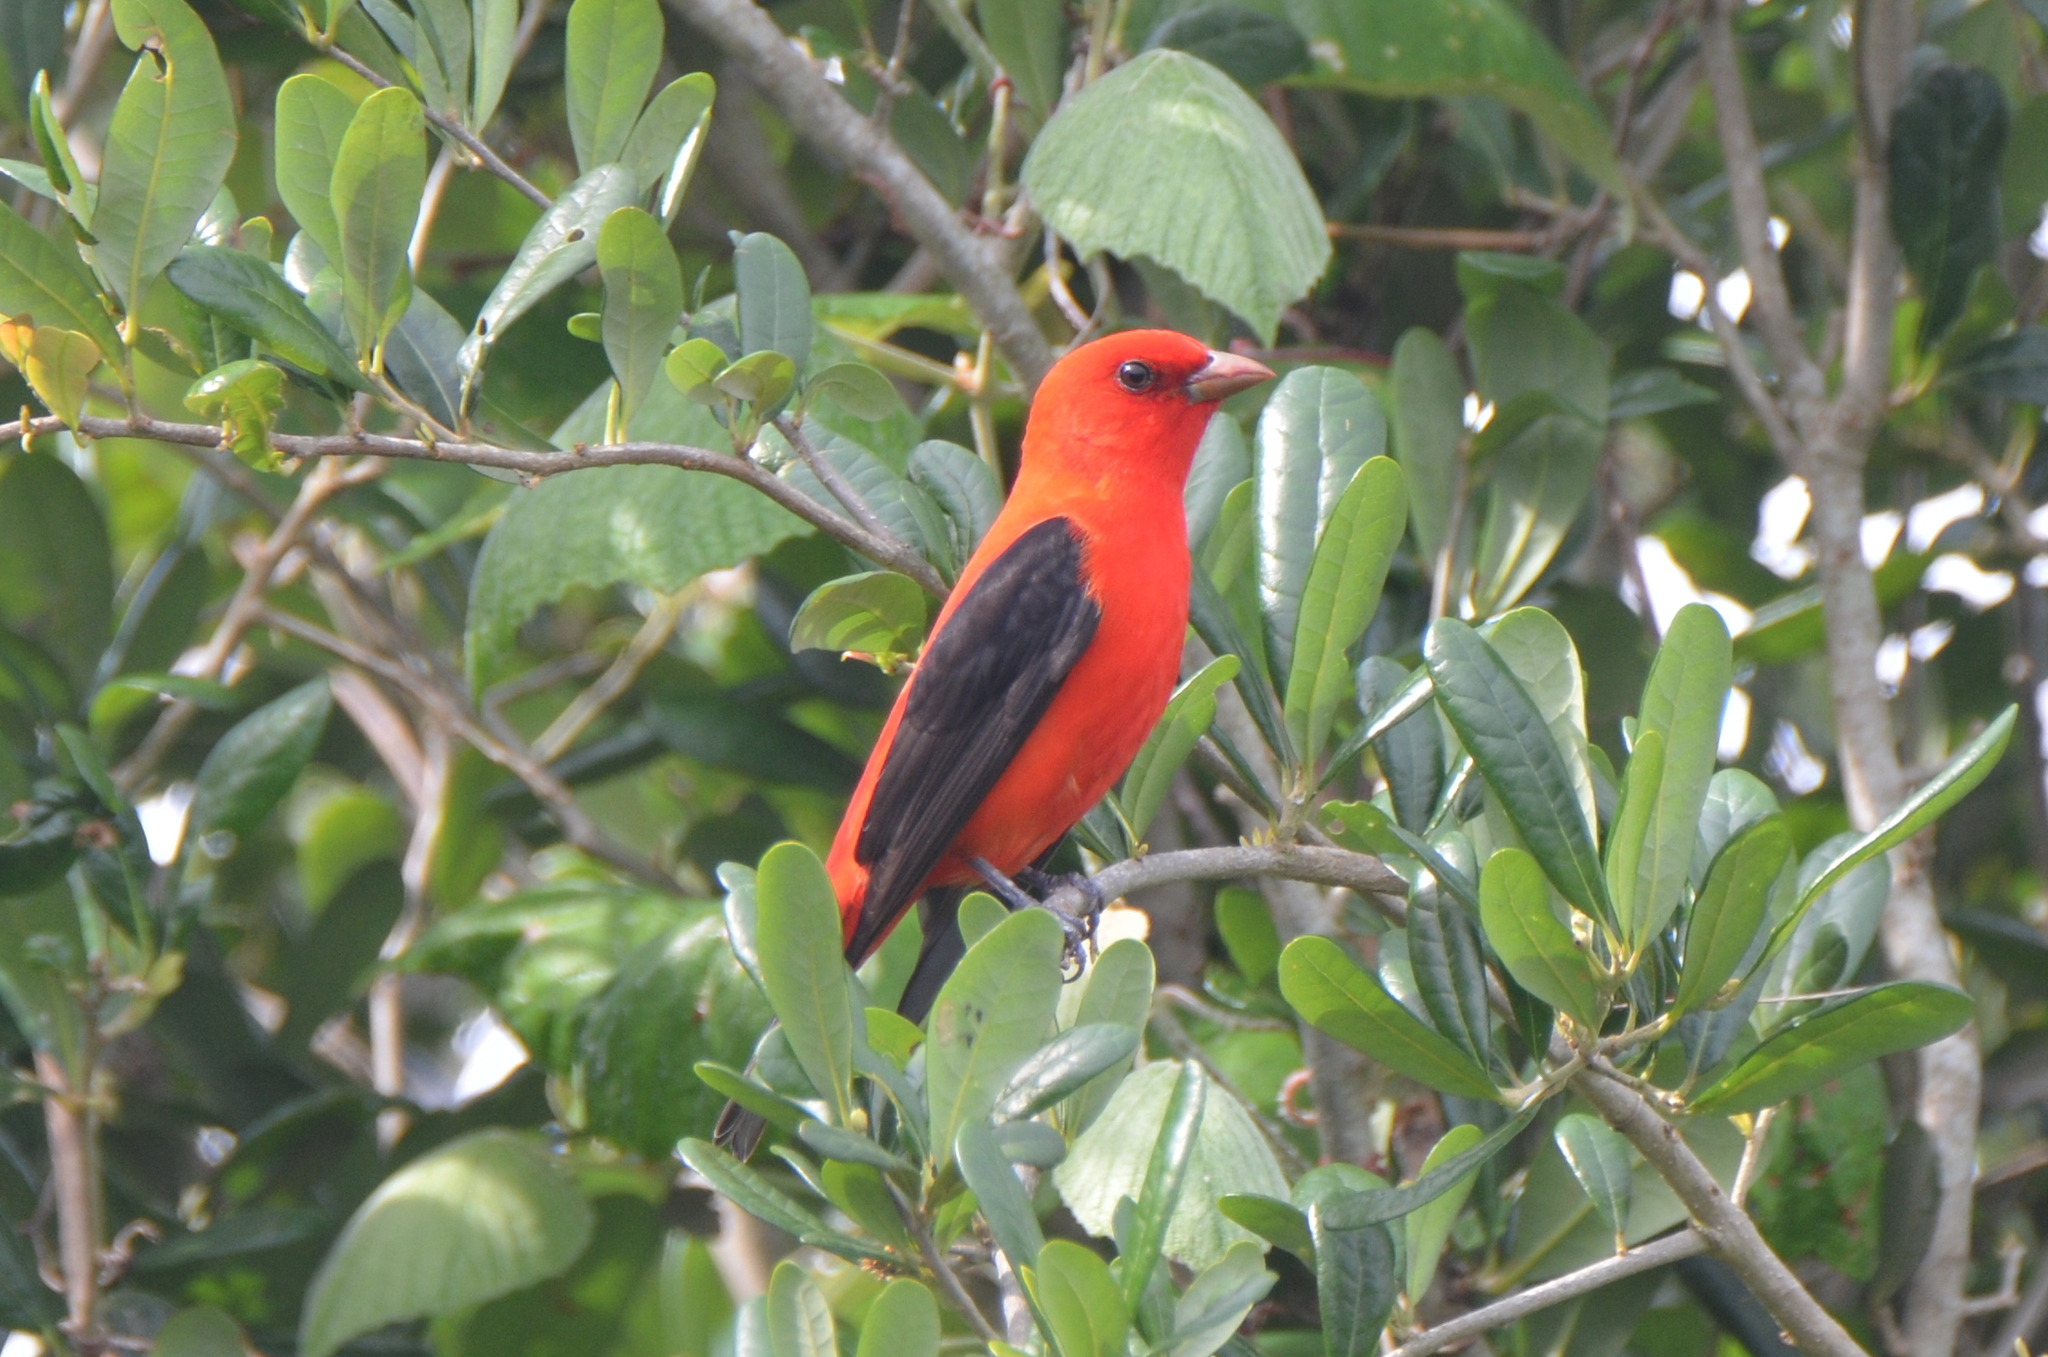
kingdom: Animalia
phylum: Chordata
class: Aves
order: Passeriformes
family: Cardinalidae
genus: Piranga
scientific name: Piranga olivacea
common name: Scarlet tanager
